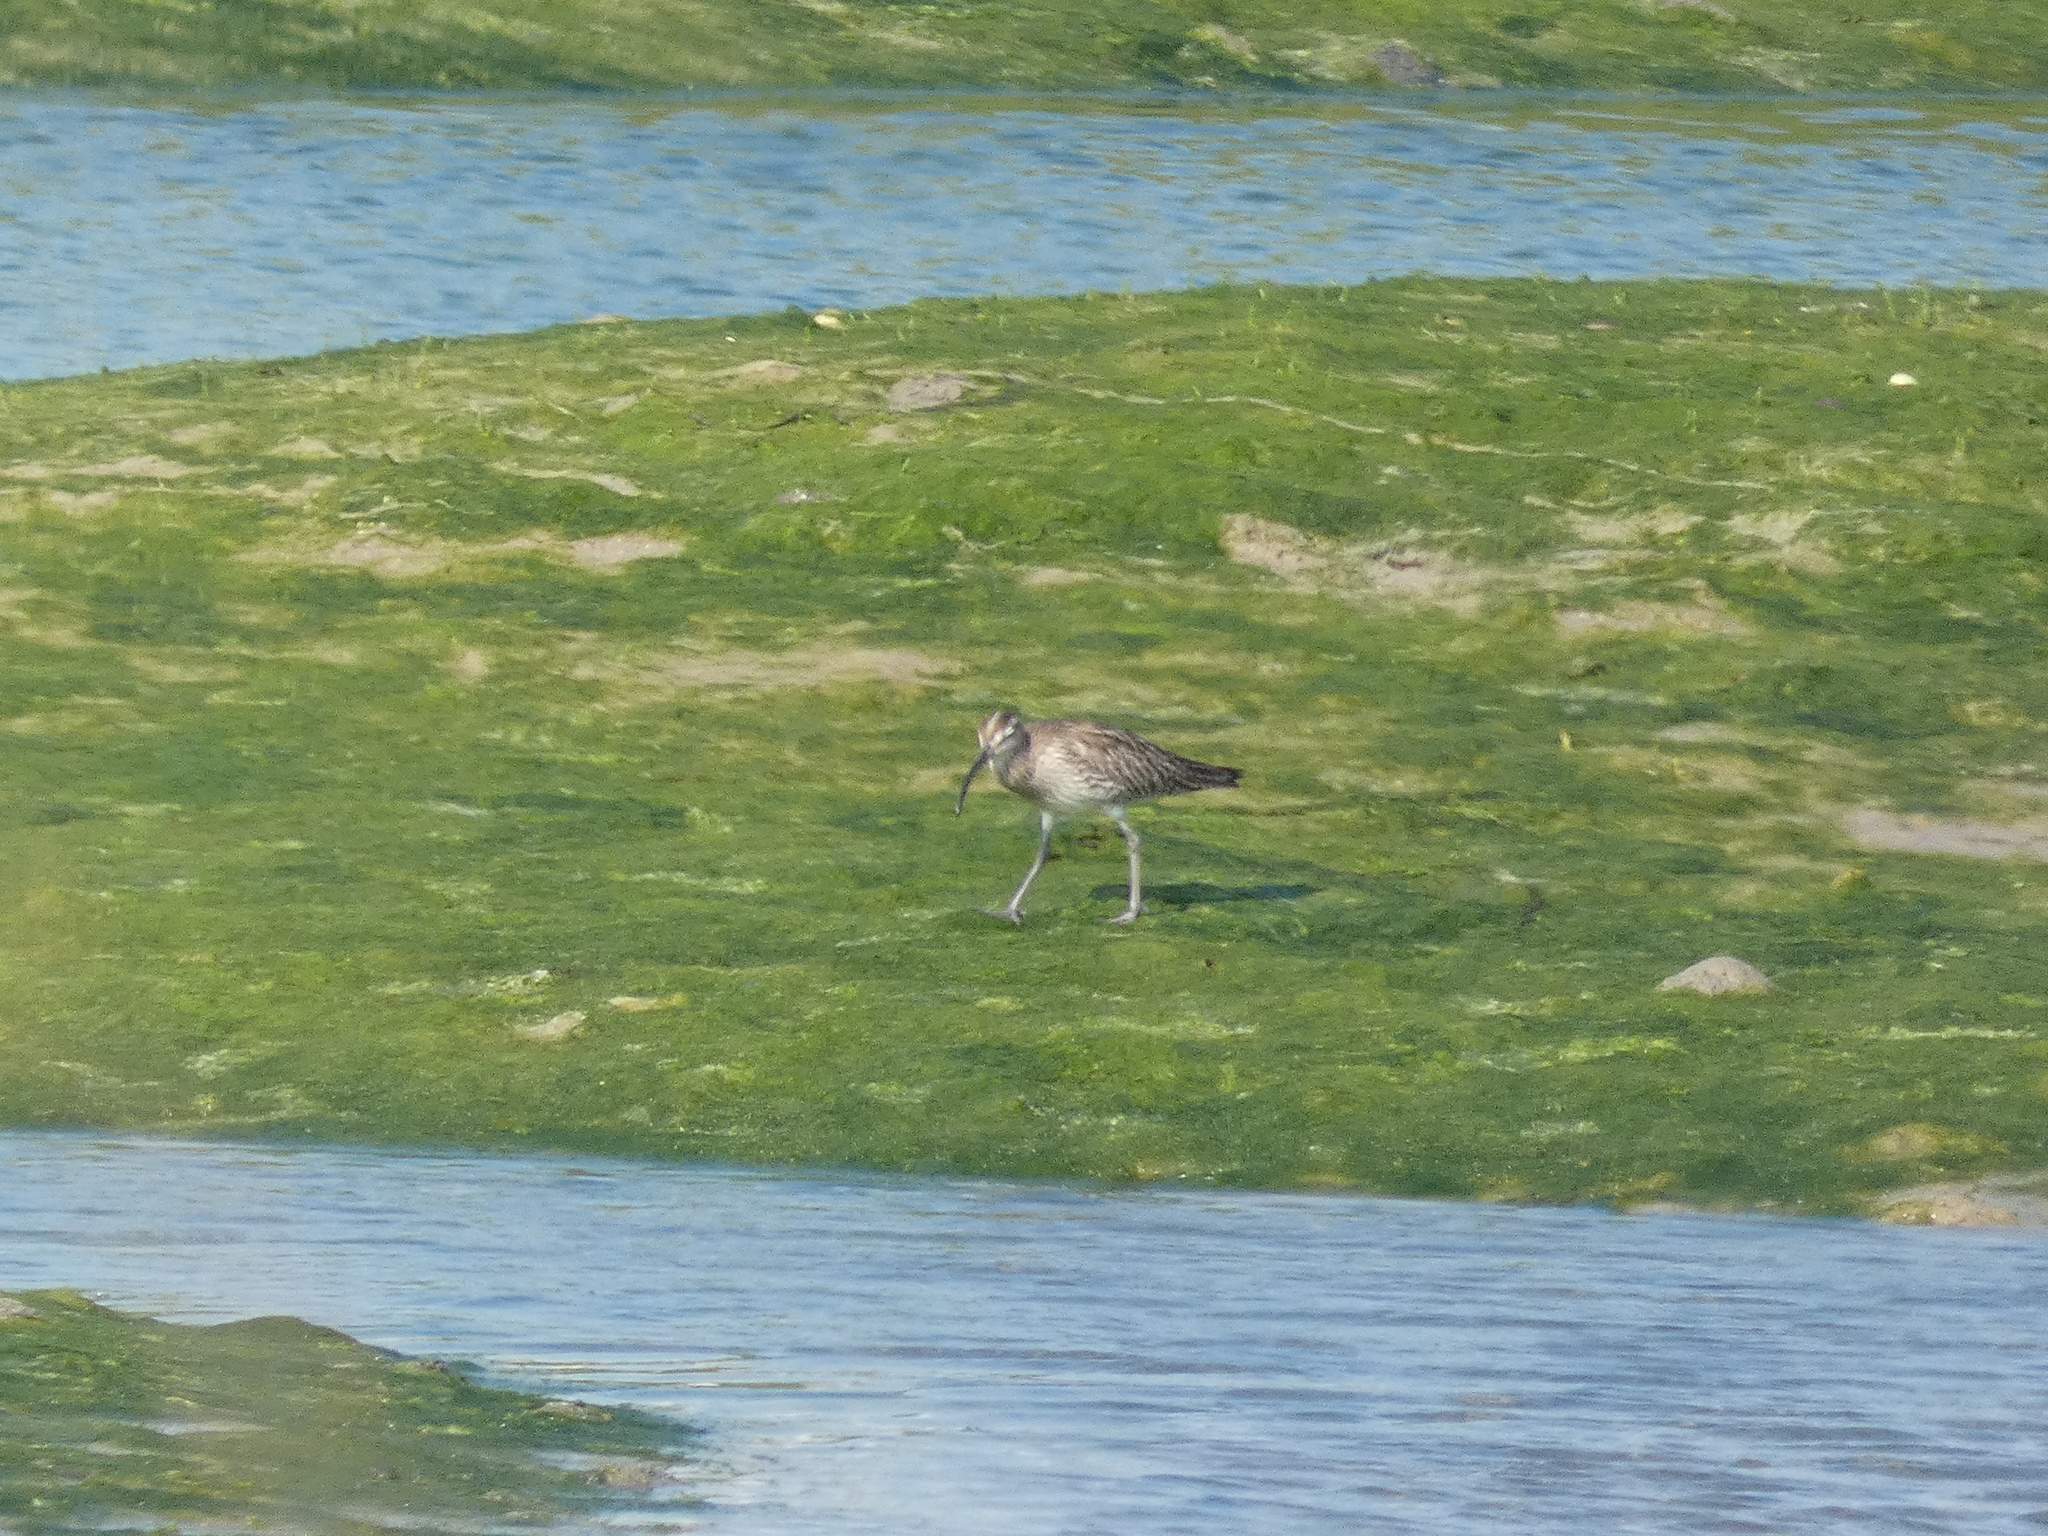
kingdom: Animalia
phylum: Chordata
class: Aves
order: Charadriiformes
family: Scolopacidae
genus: Numenius
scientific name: Numenius phaeopus
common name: Whimbrel
